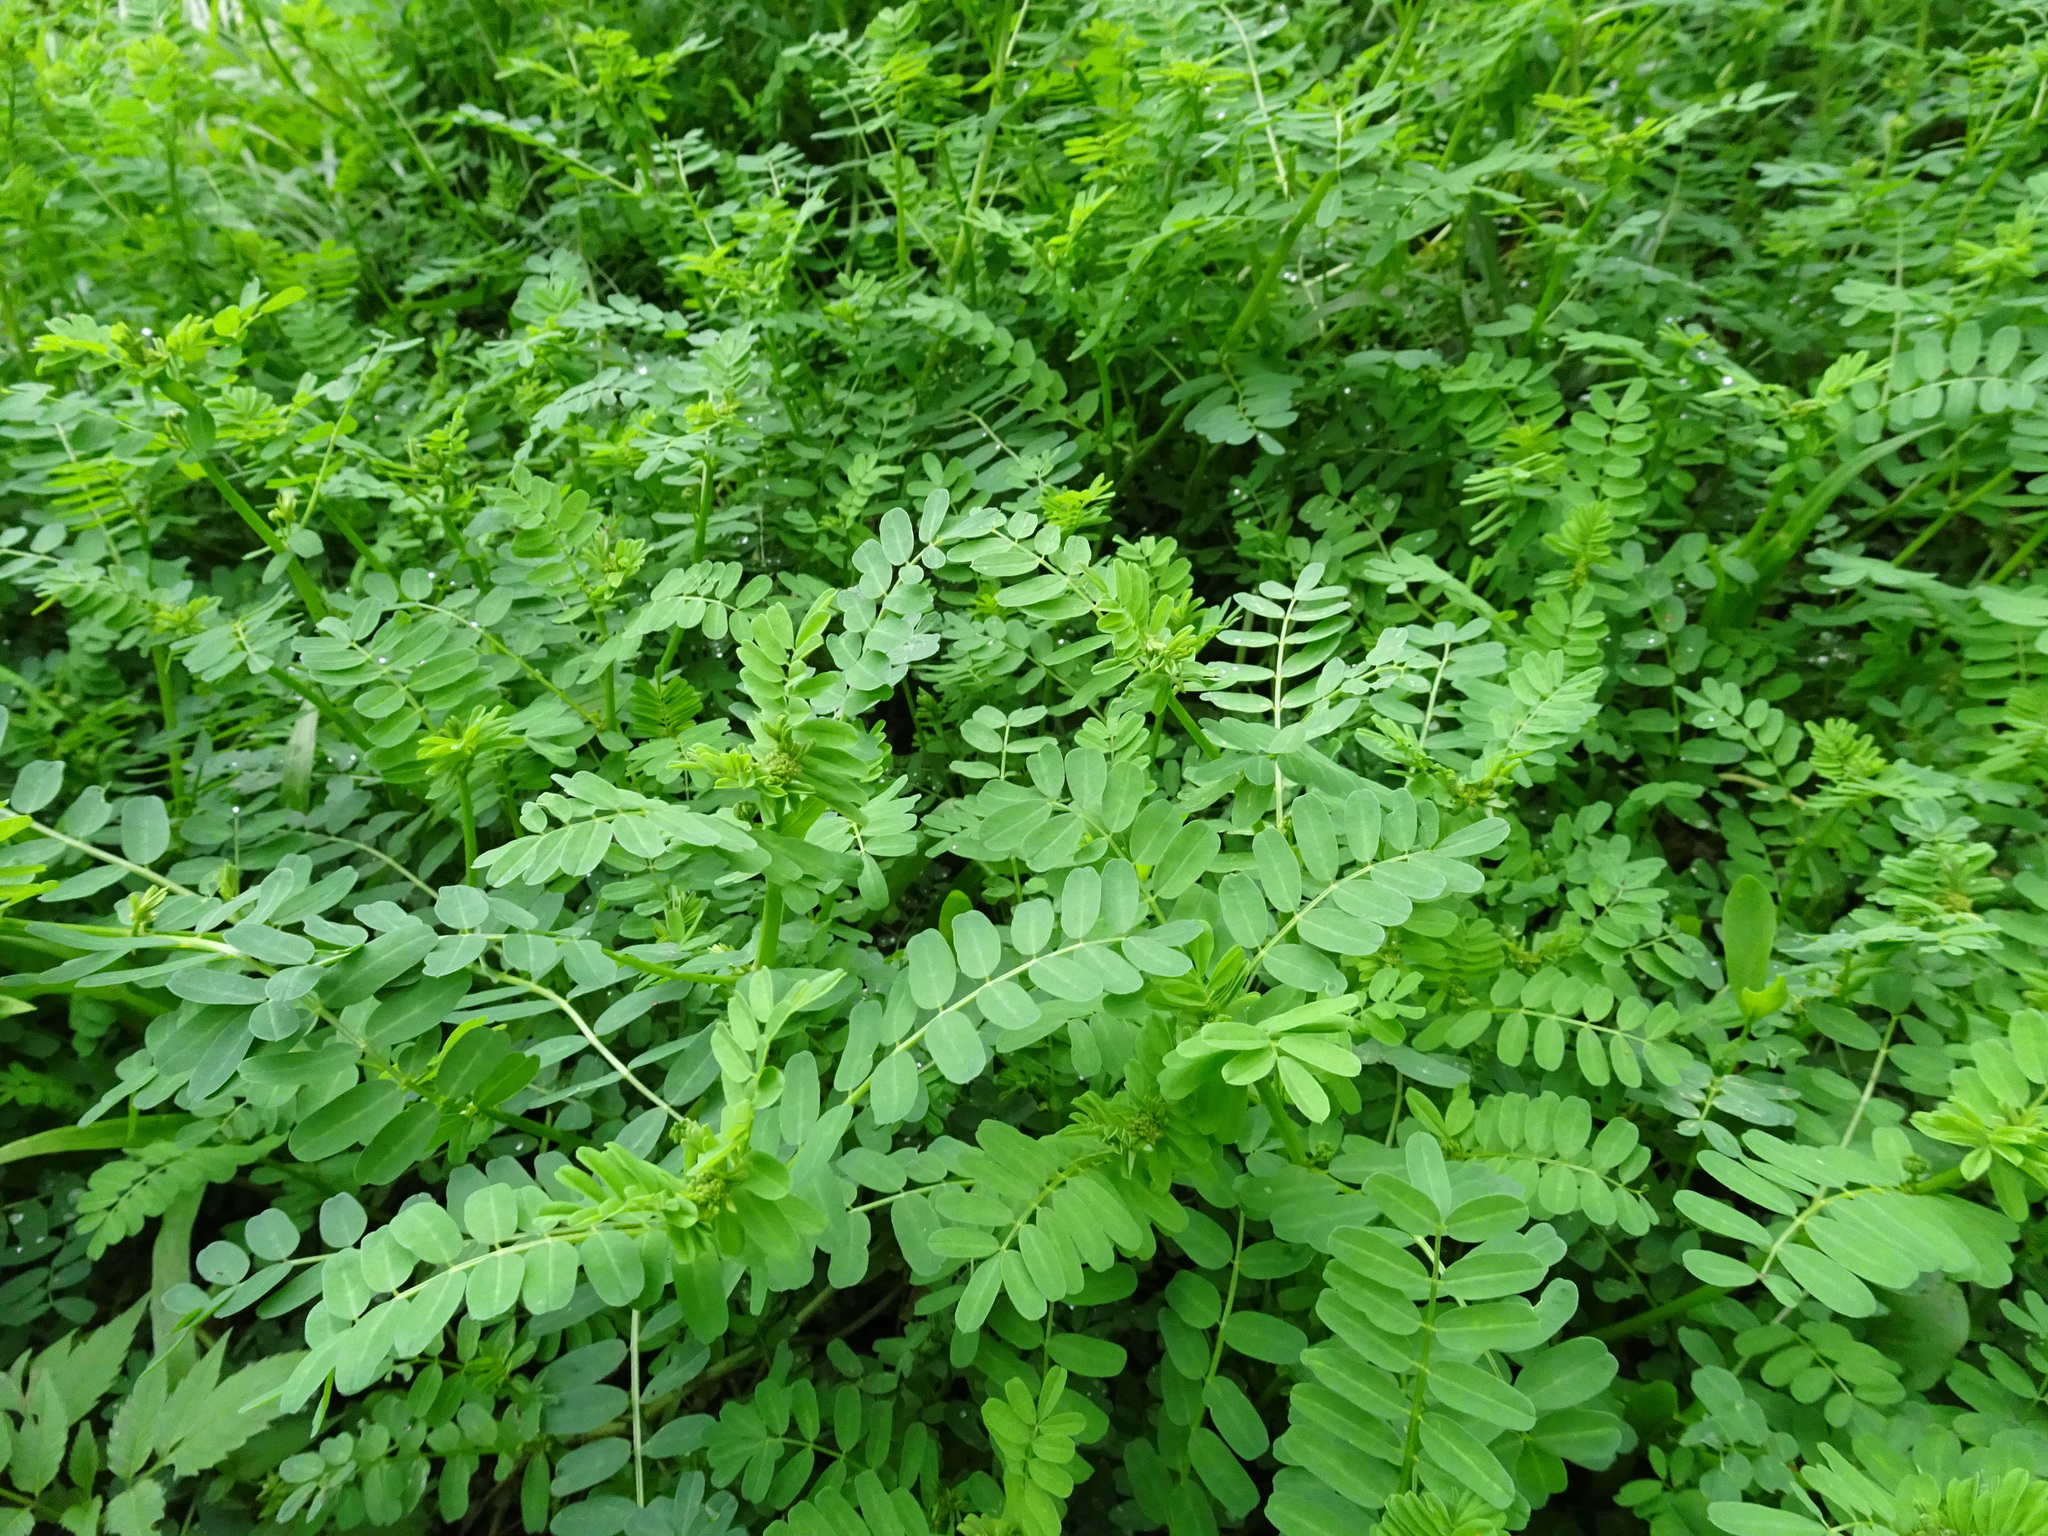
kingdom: Plantae
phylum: Tracheophyta
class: Magnoliopsida
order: Fabales
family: Fabaceae
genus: Coronilla
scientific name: Coronilla varia
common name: Crownvetch
